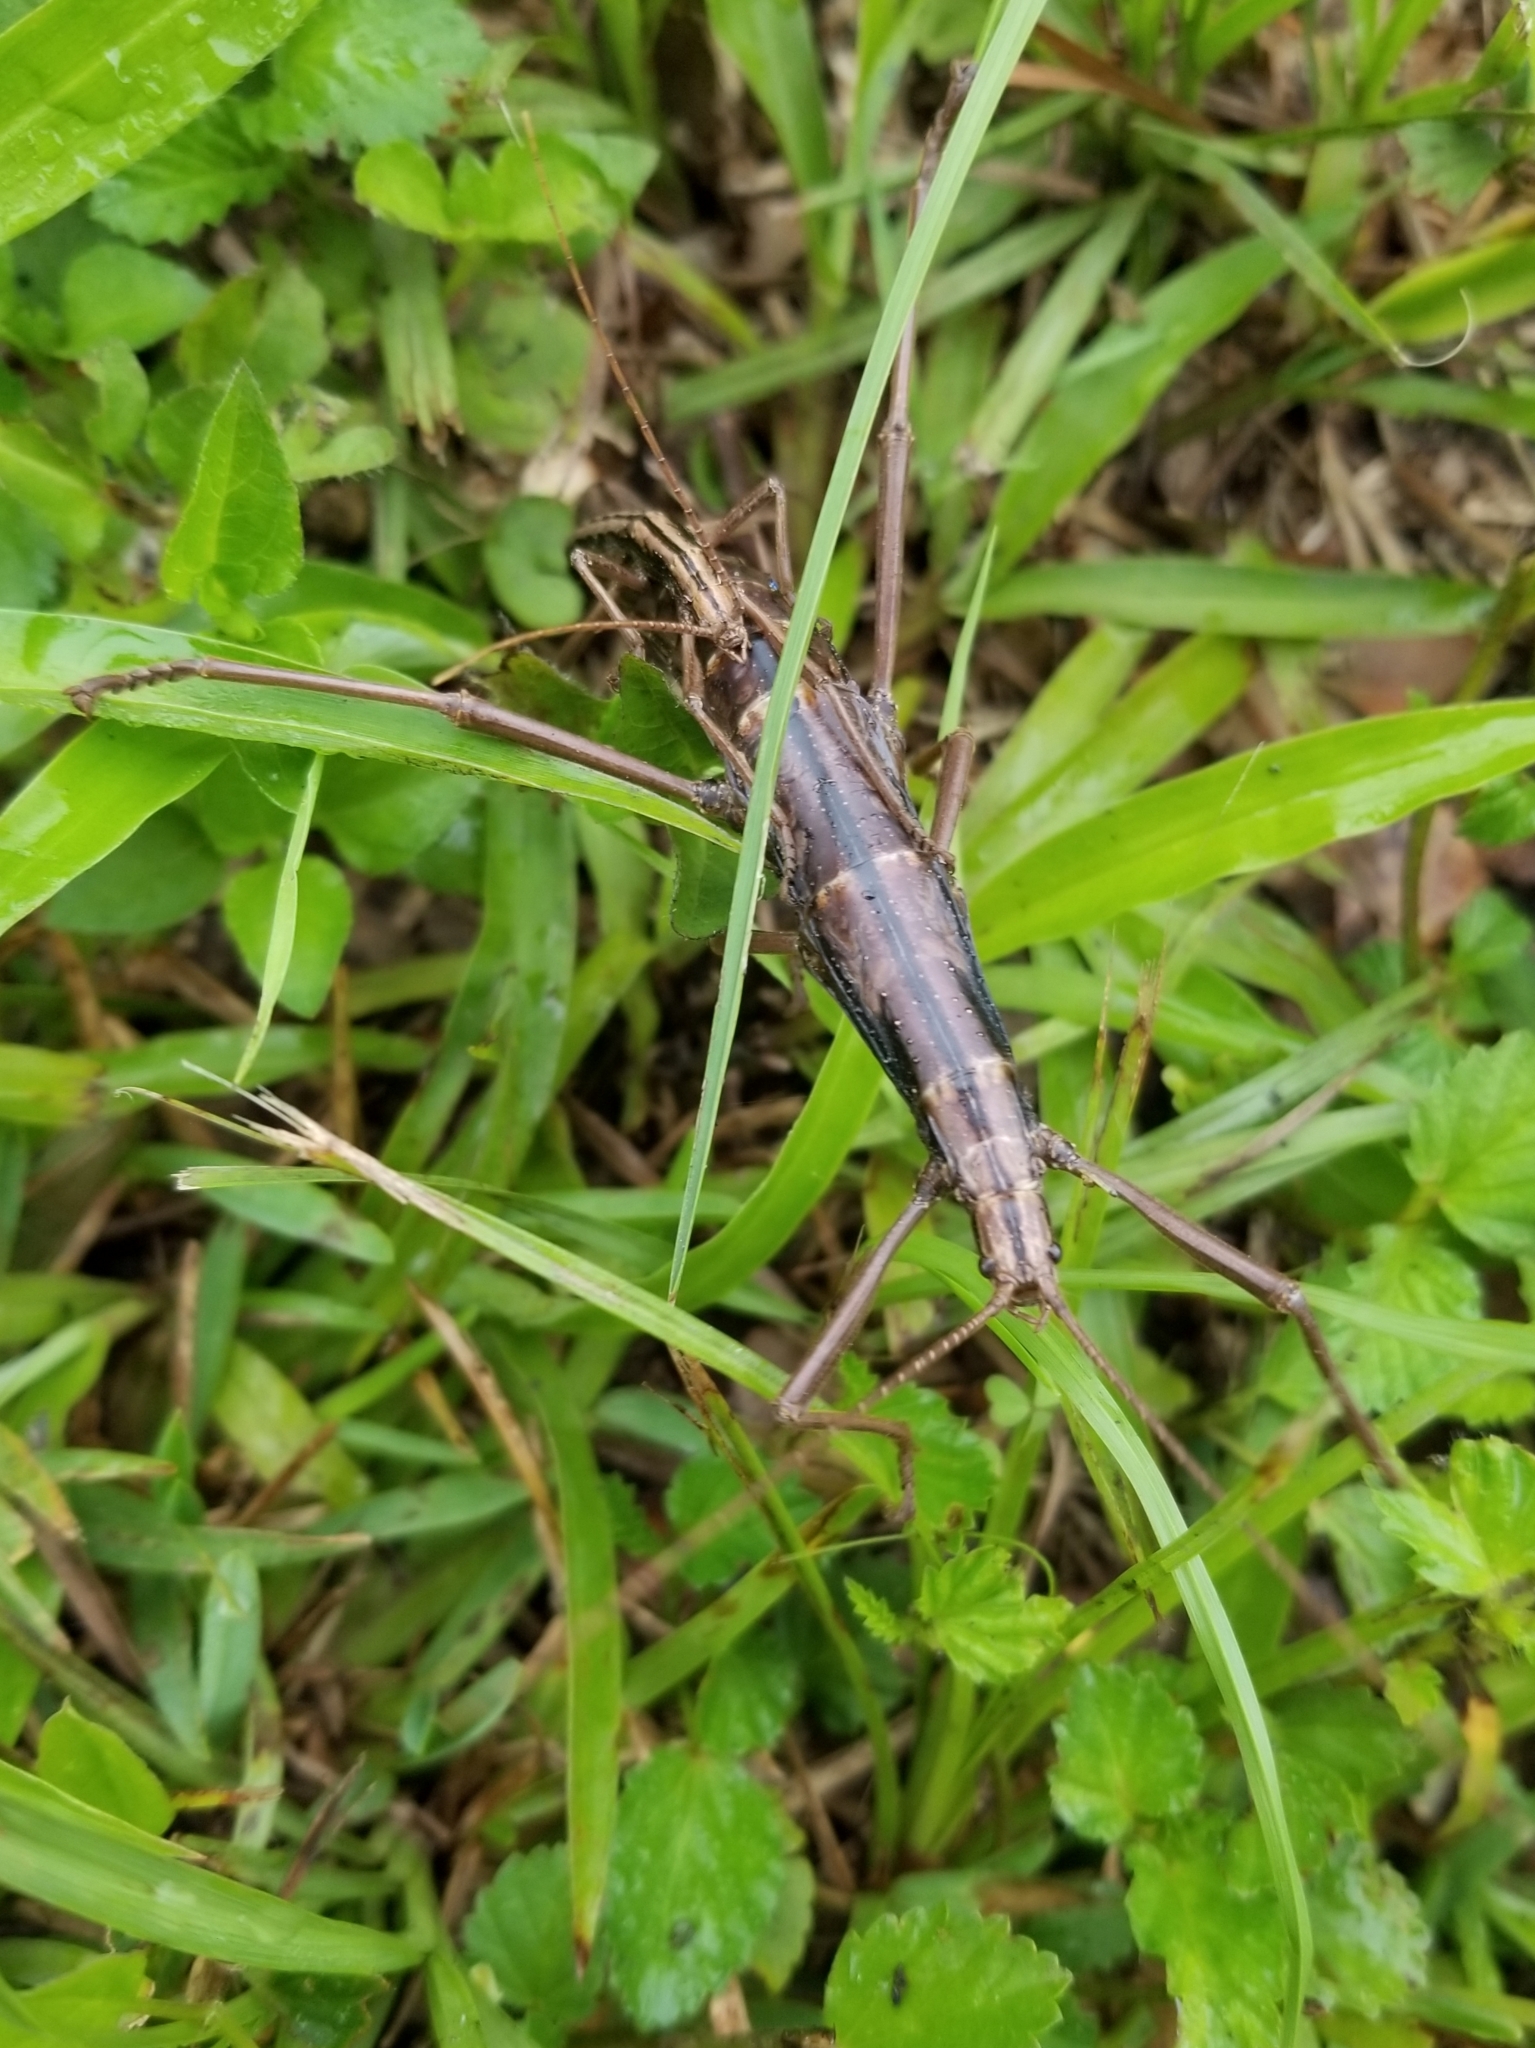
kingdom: Animalia
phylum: Arthropoda
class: Insecta
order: Phasmida
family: Pseudophasmatidae
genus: Anisomorpha
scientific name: Anisomorpha buprestoides
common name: Florida stick insect
